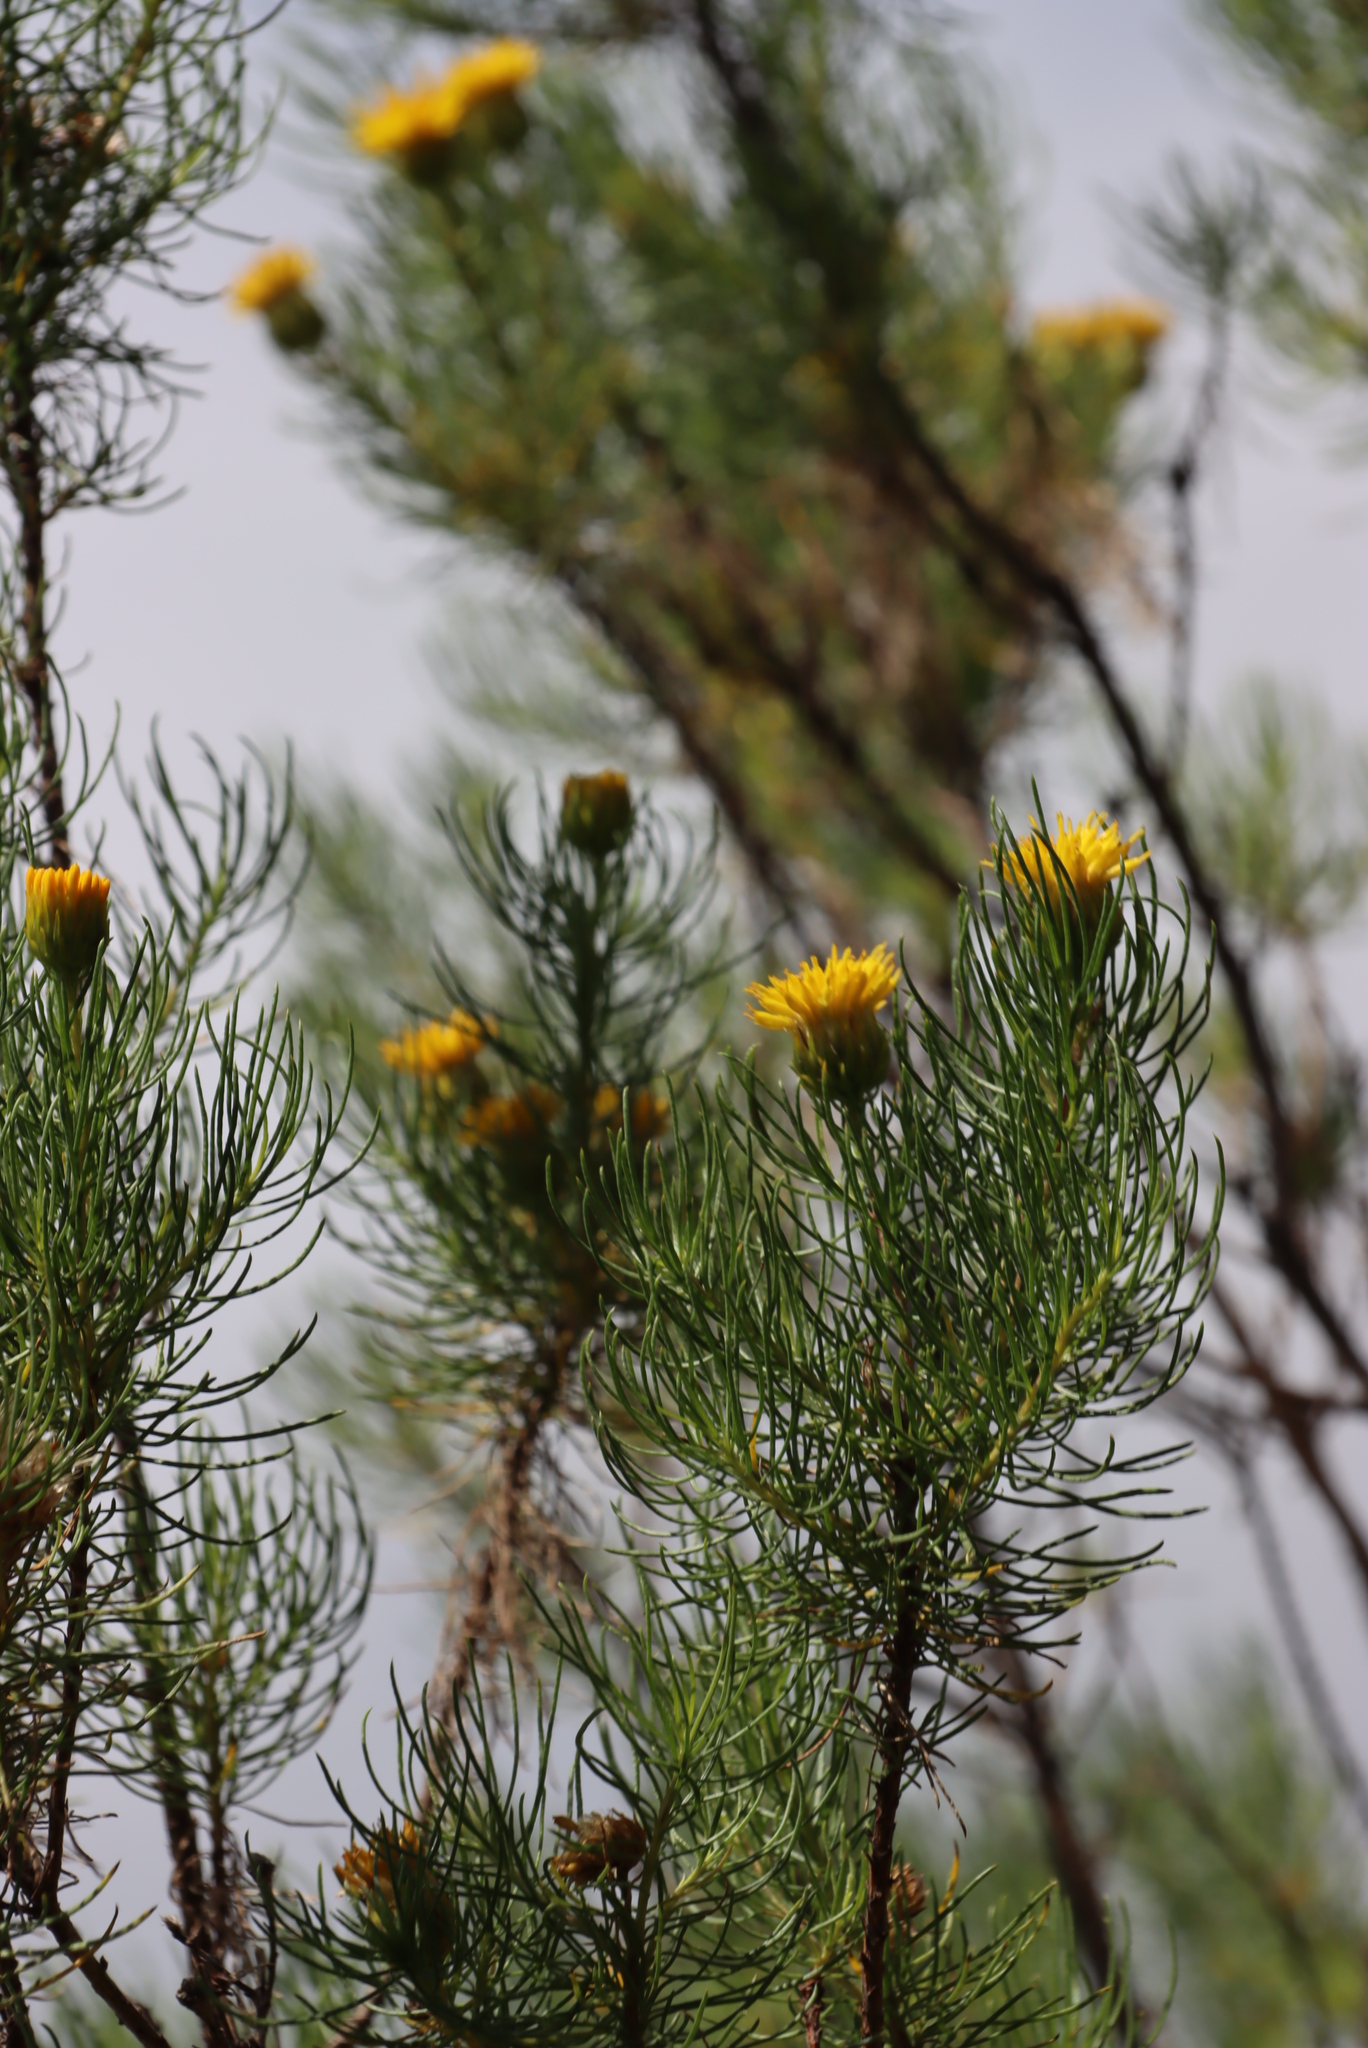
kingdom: Plantae
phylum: Tracheophyta
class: Magnoliopsida
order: Asterales
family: Asteraceae
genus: Pteronia
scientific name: Pteronia camphorata
